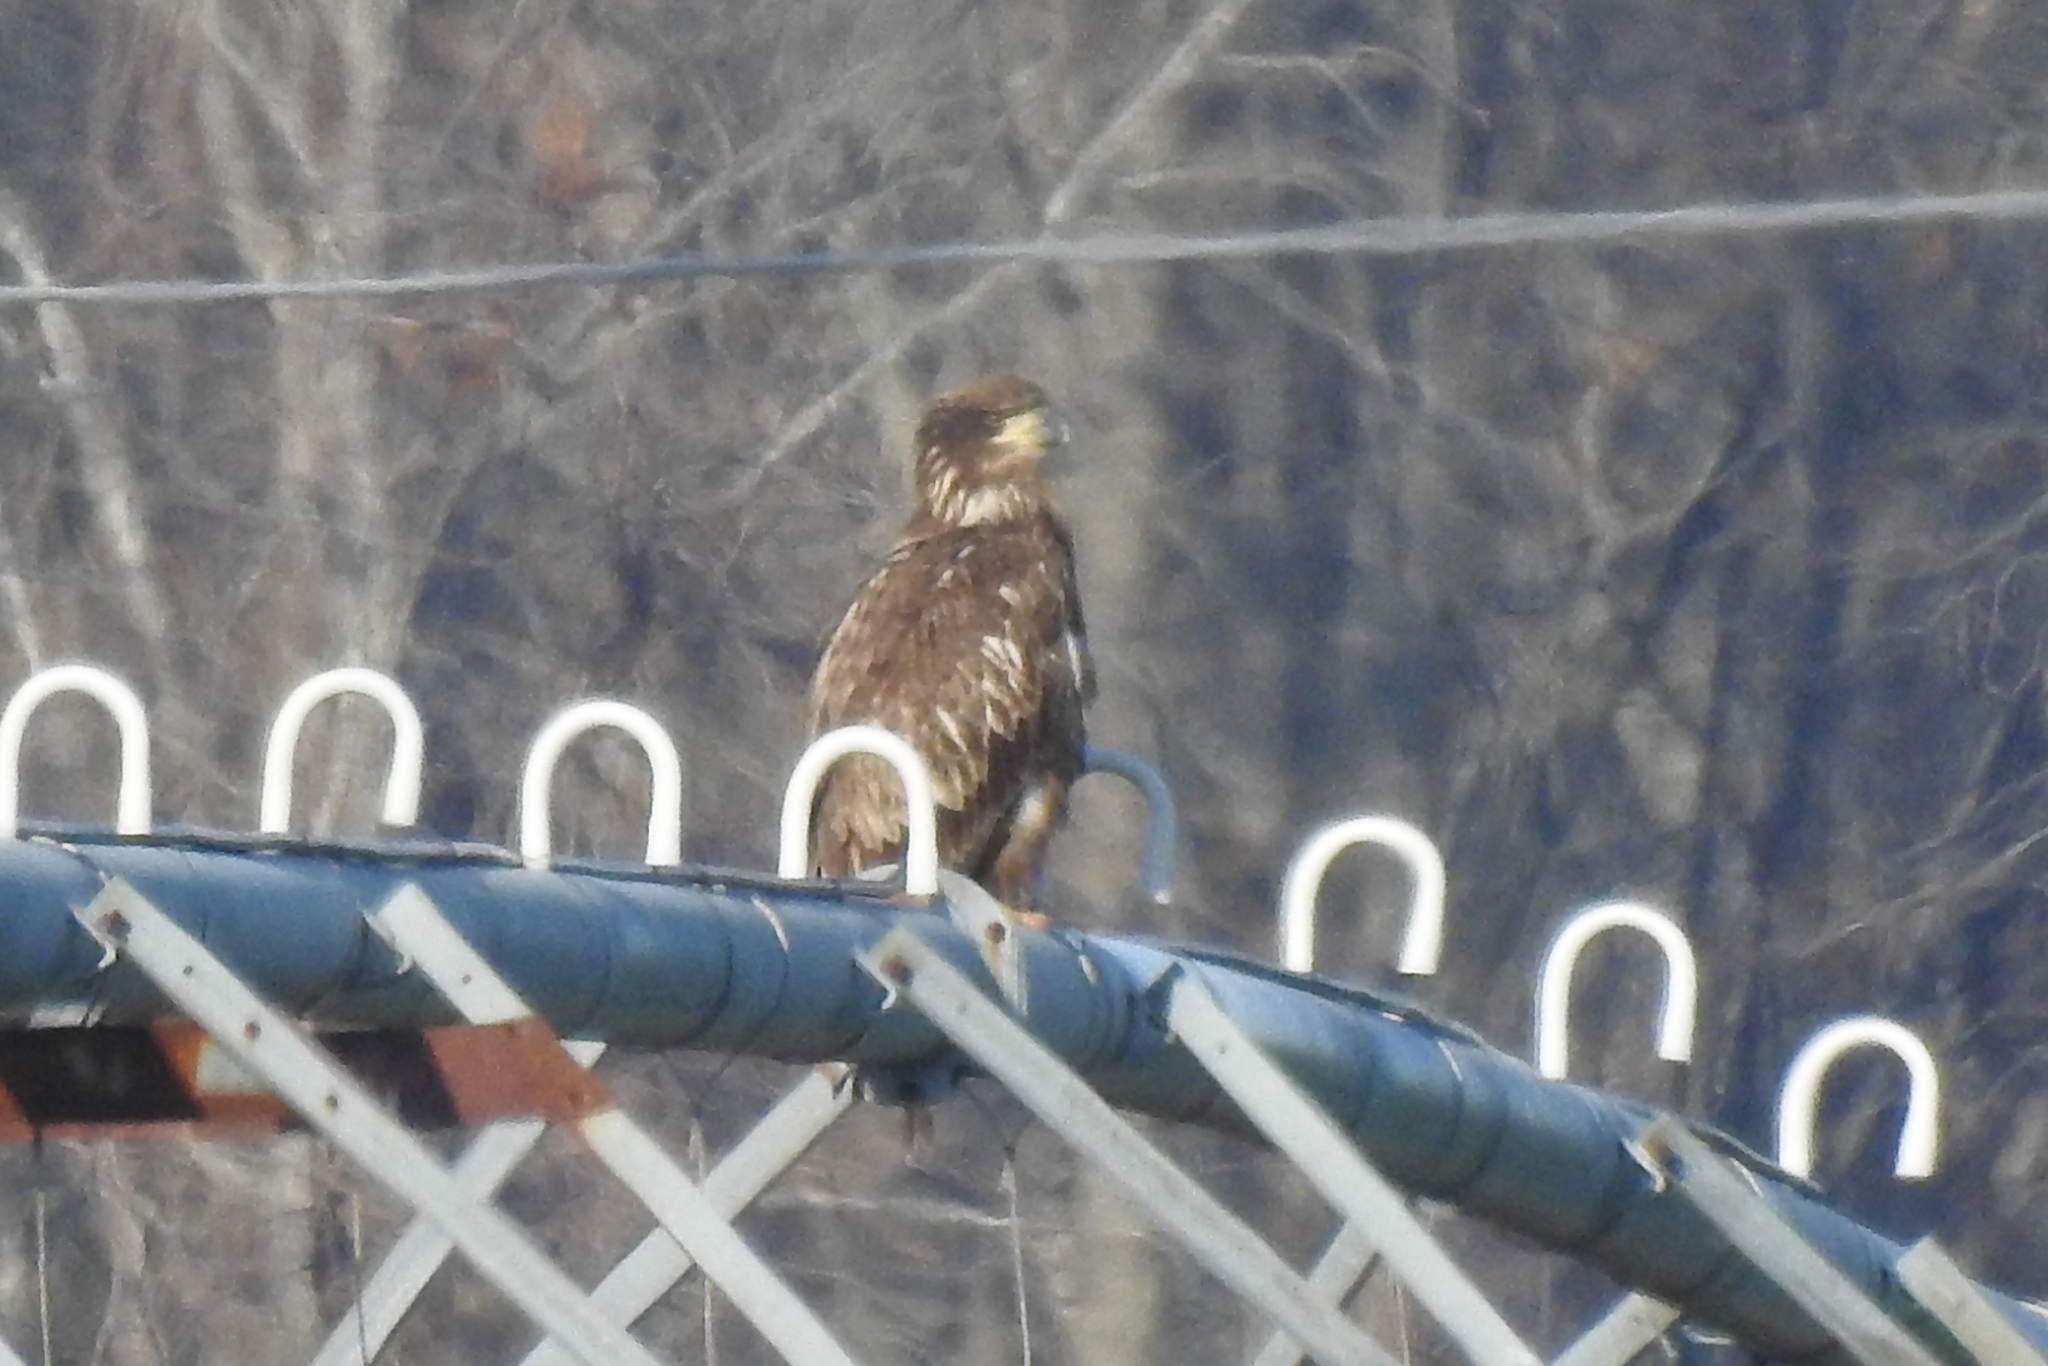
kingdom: Animalia
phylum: Chordata
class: Aves
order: Accipitriformes
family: Accipitridae
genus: Haliaeetus
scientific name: Haliaeetus leucocephalus
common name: Bald eagle
